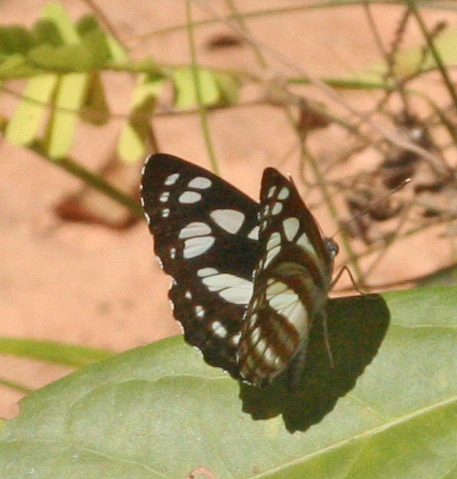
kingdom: Animalia
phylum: Arthropoda
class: Insecta
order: Lepidoptera
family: Nymphalidae
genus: Phaedyma
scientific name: Phaedyma columella
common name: Short banded sailer
